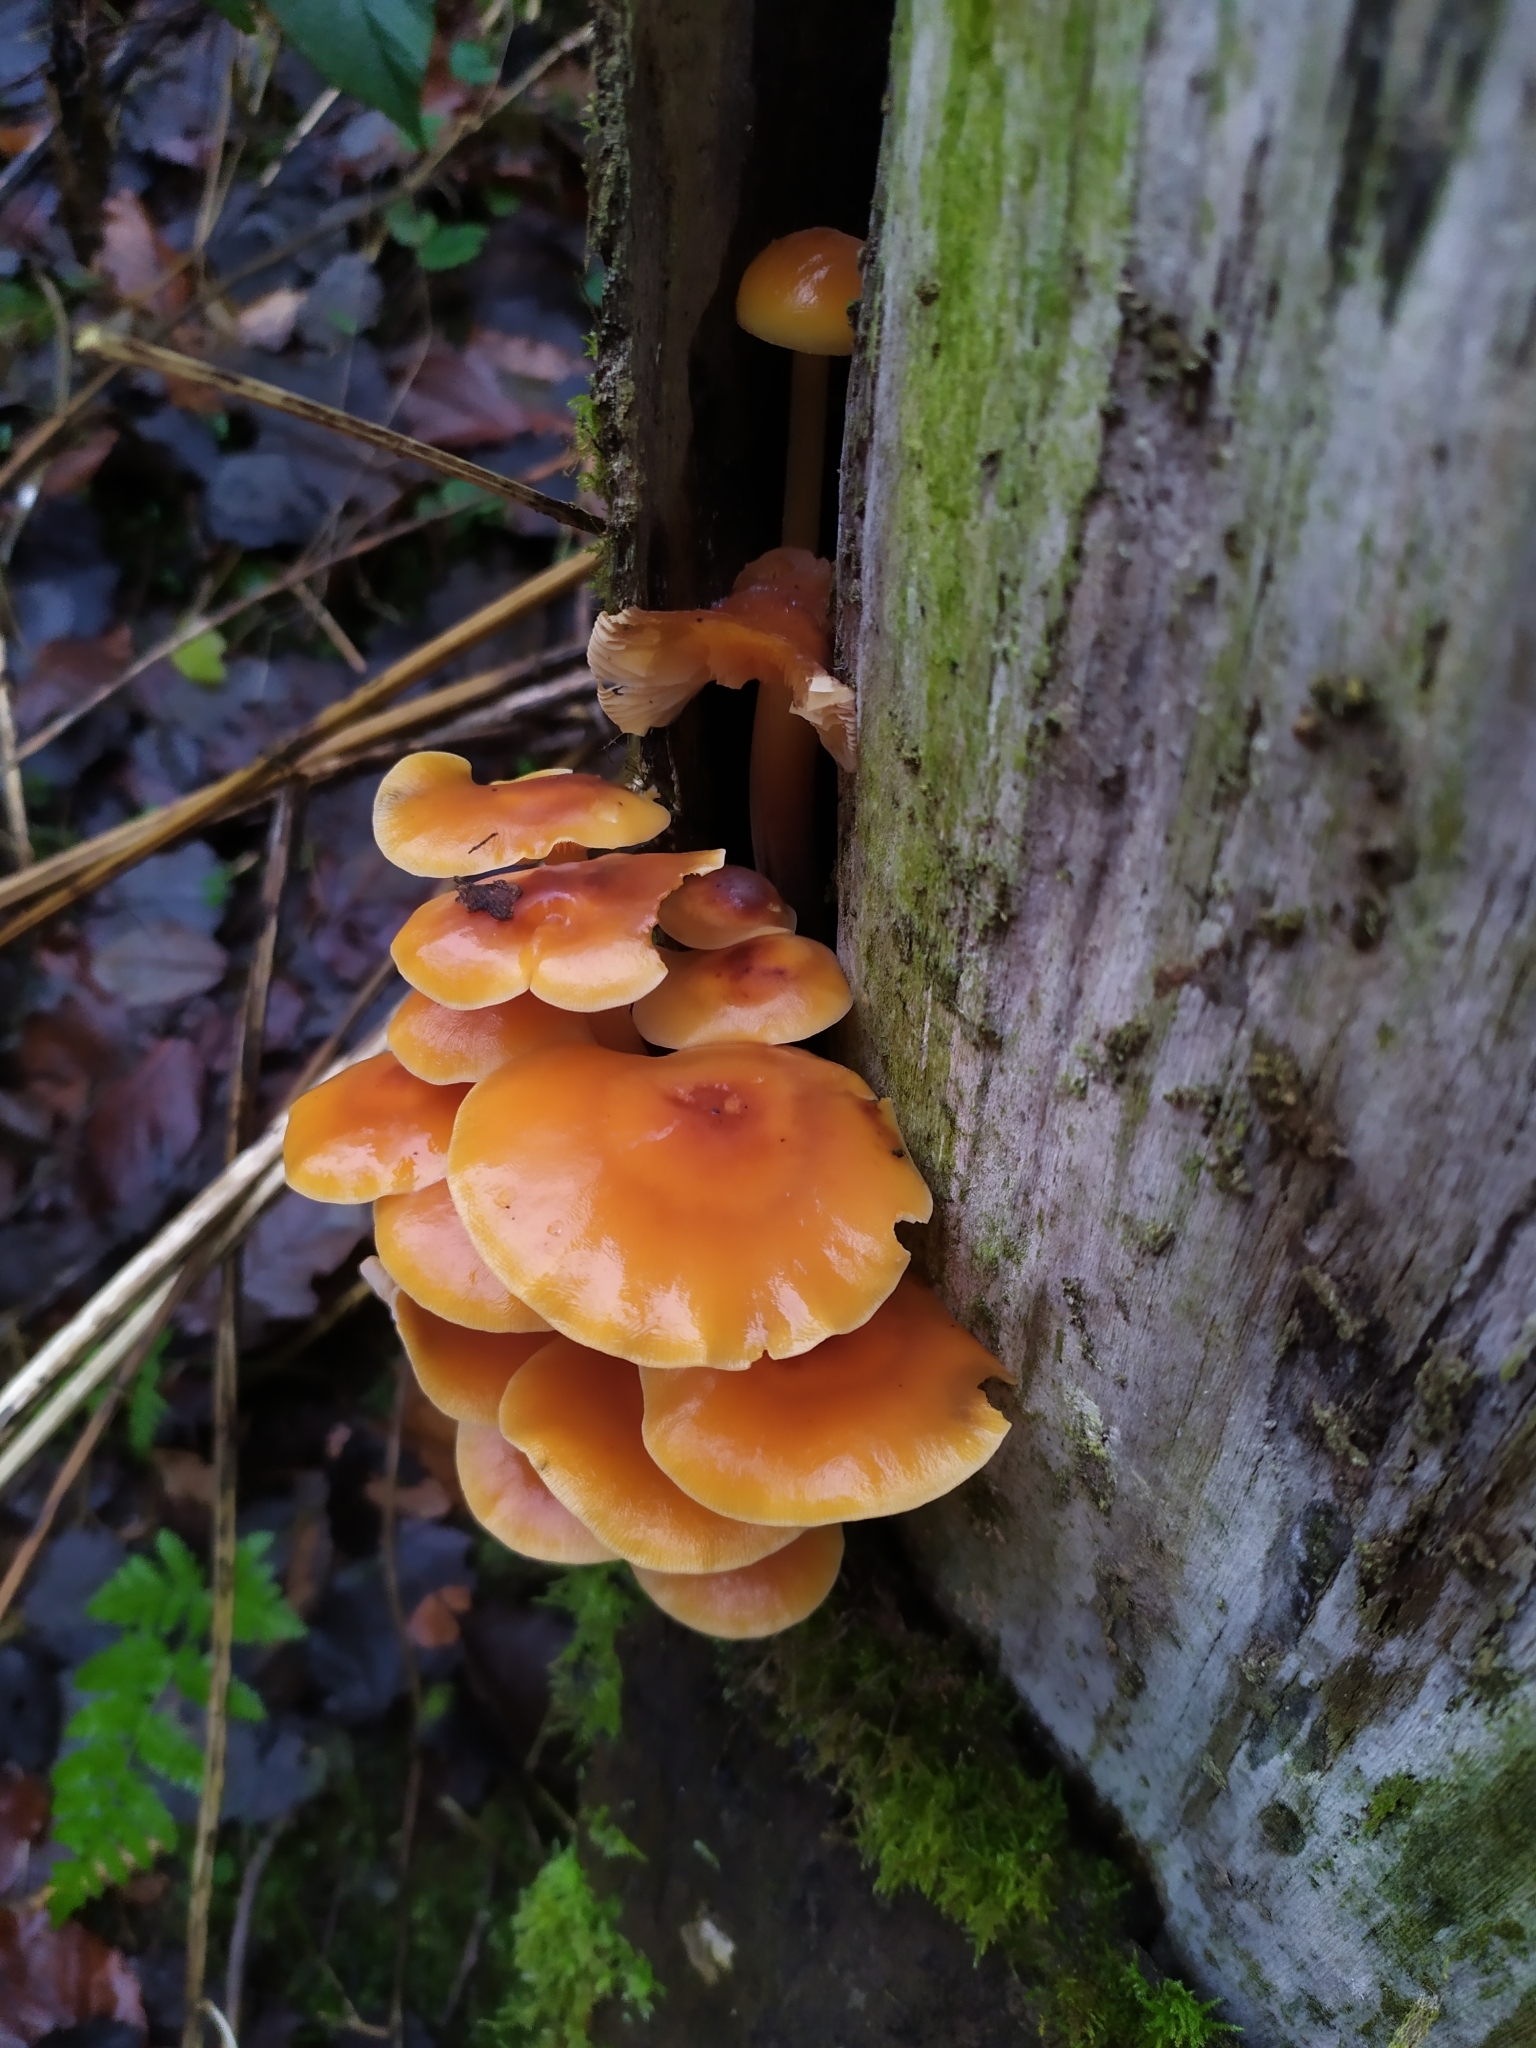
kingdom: Fungi
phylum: Basidiomycota
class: Agaricomycetes
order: Agaricales
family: Physalacriaceae
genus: Flammulina
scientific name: Flammulina
